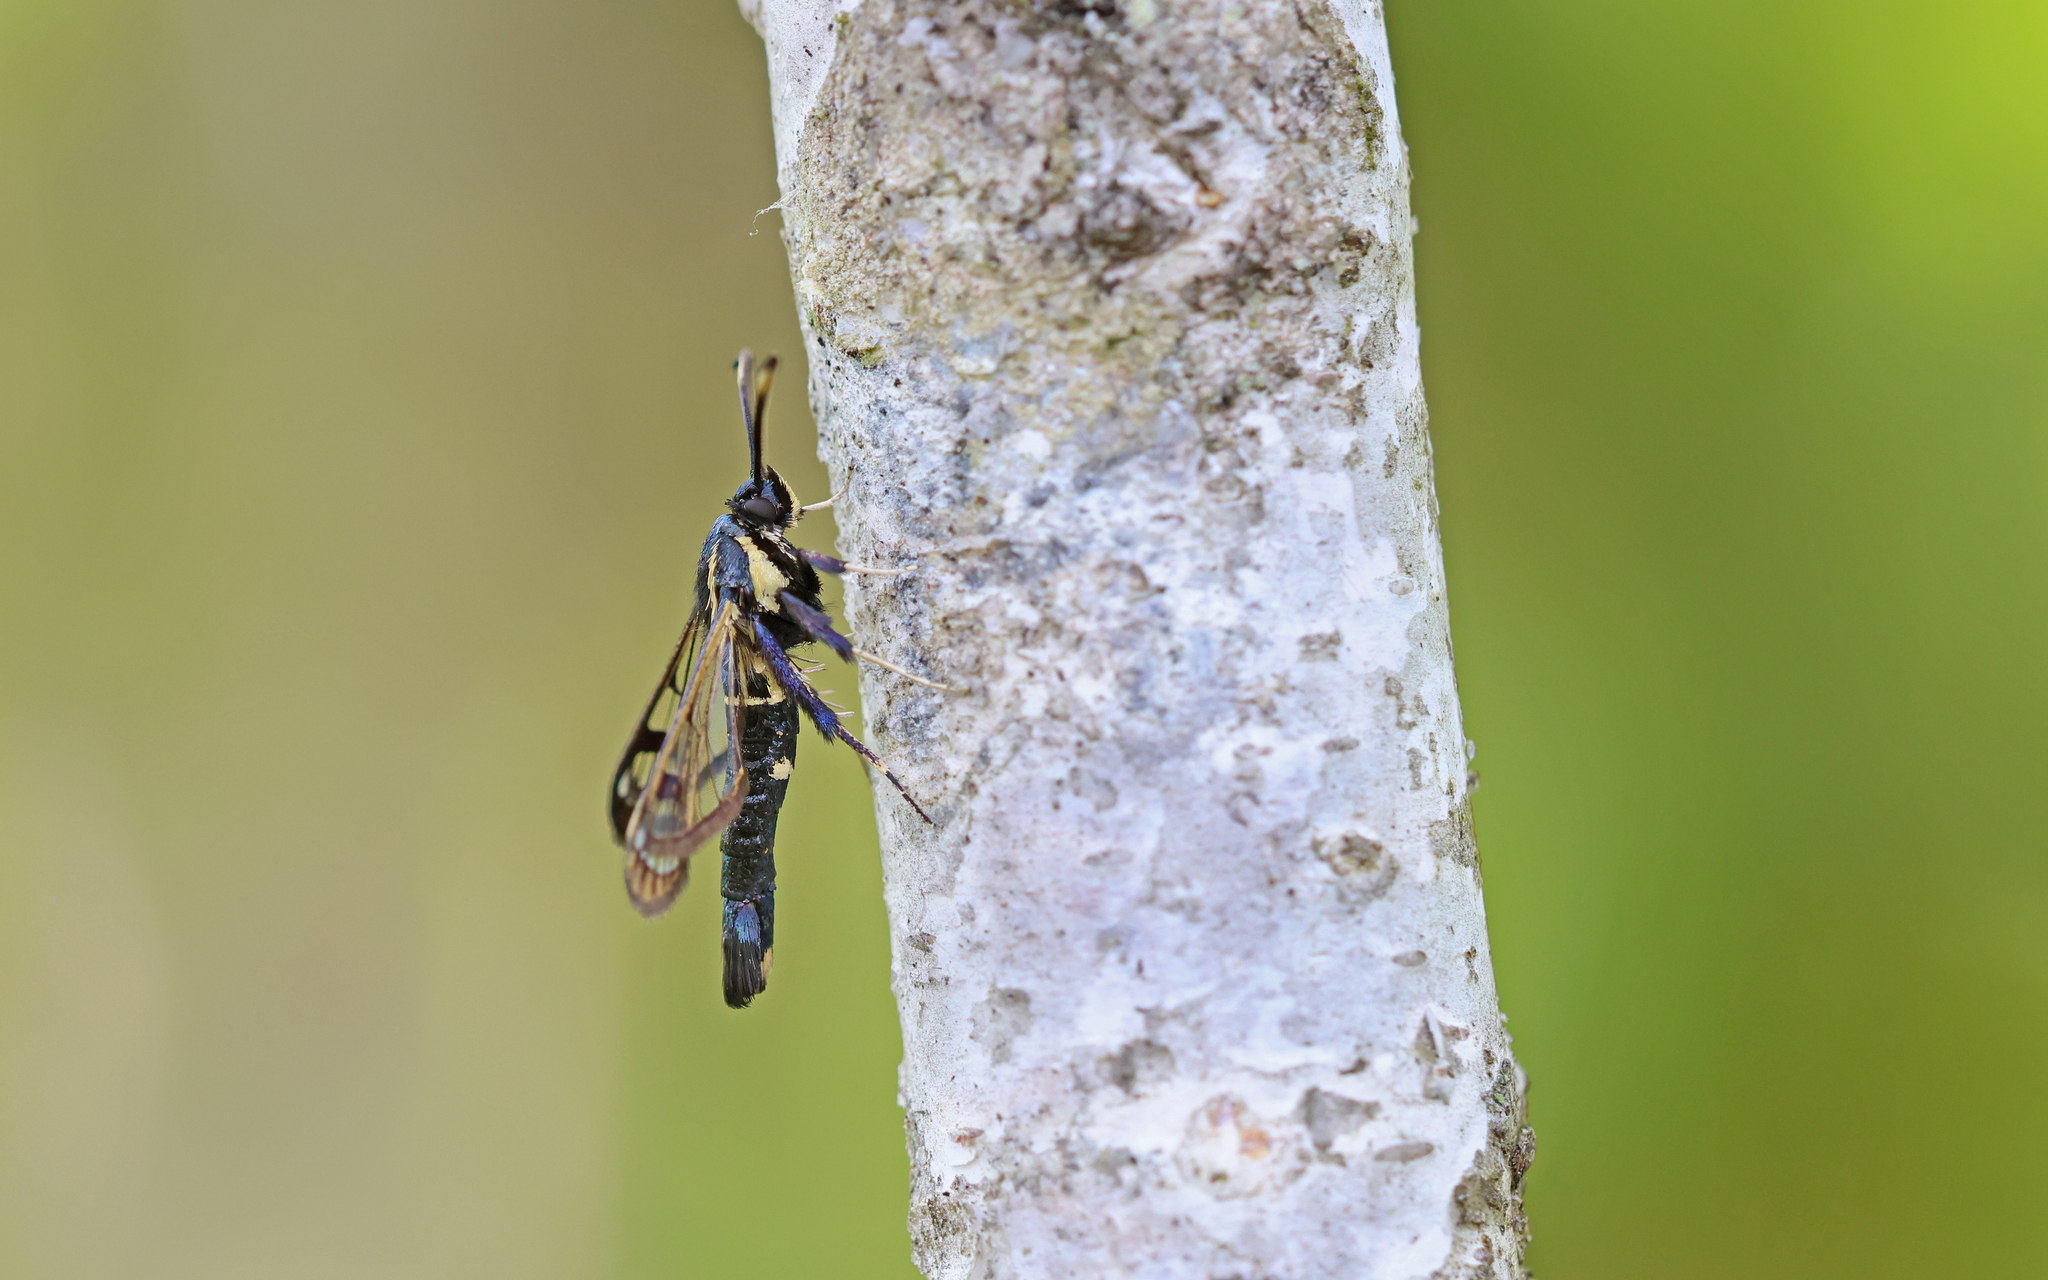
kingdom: Animalia
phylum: Arthropoda
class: Insecta
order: Lepidoptera
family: Sesiidae
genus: Synanthedon
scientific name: Synanthedon spheciformis
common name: White-barred clearwing
